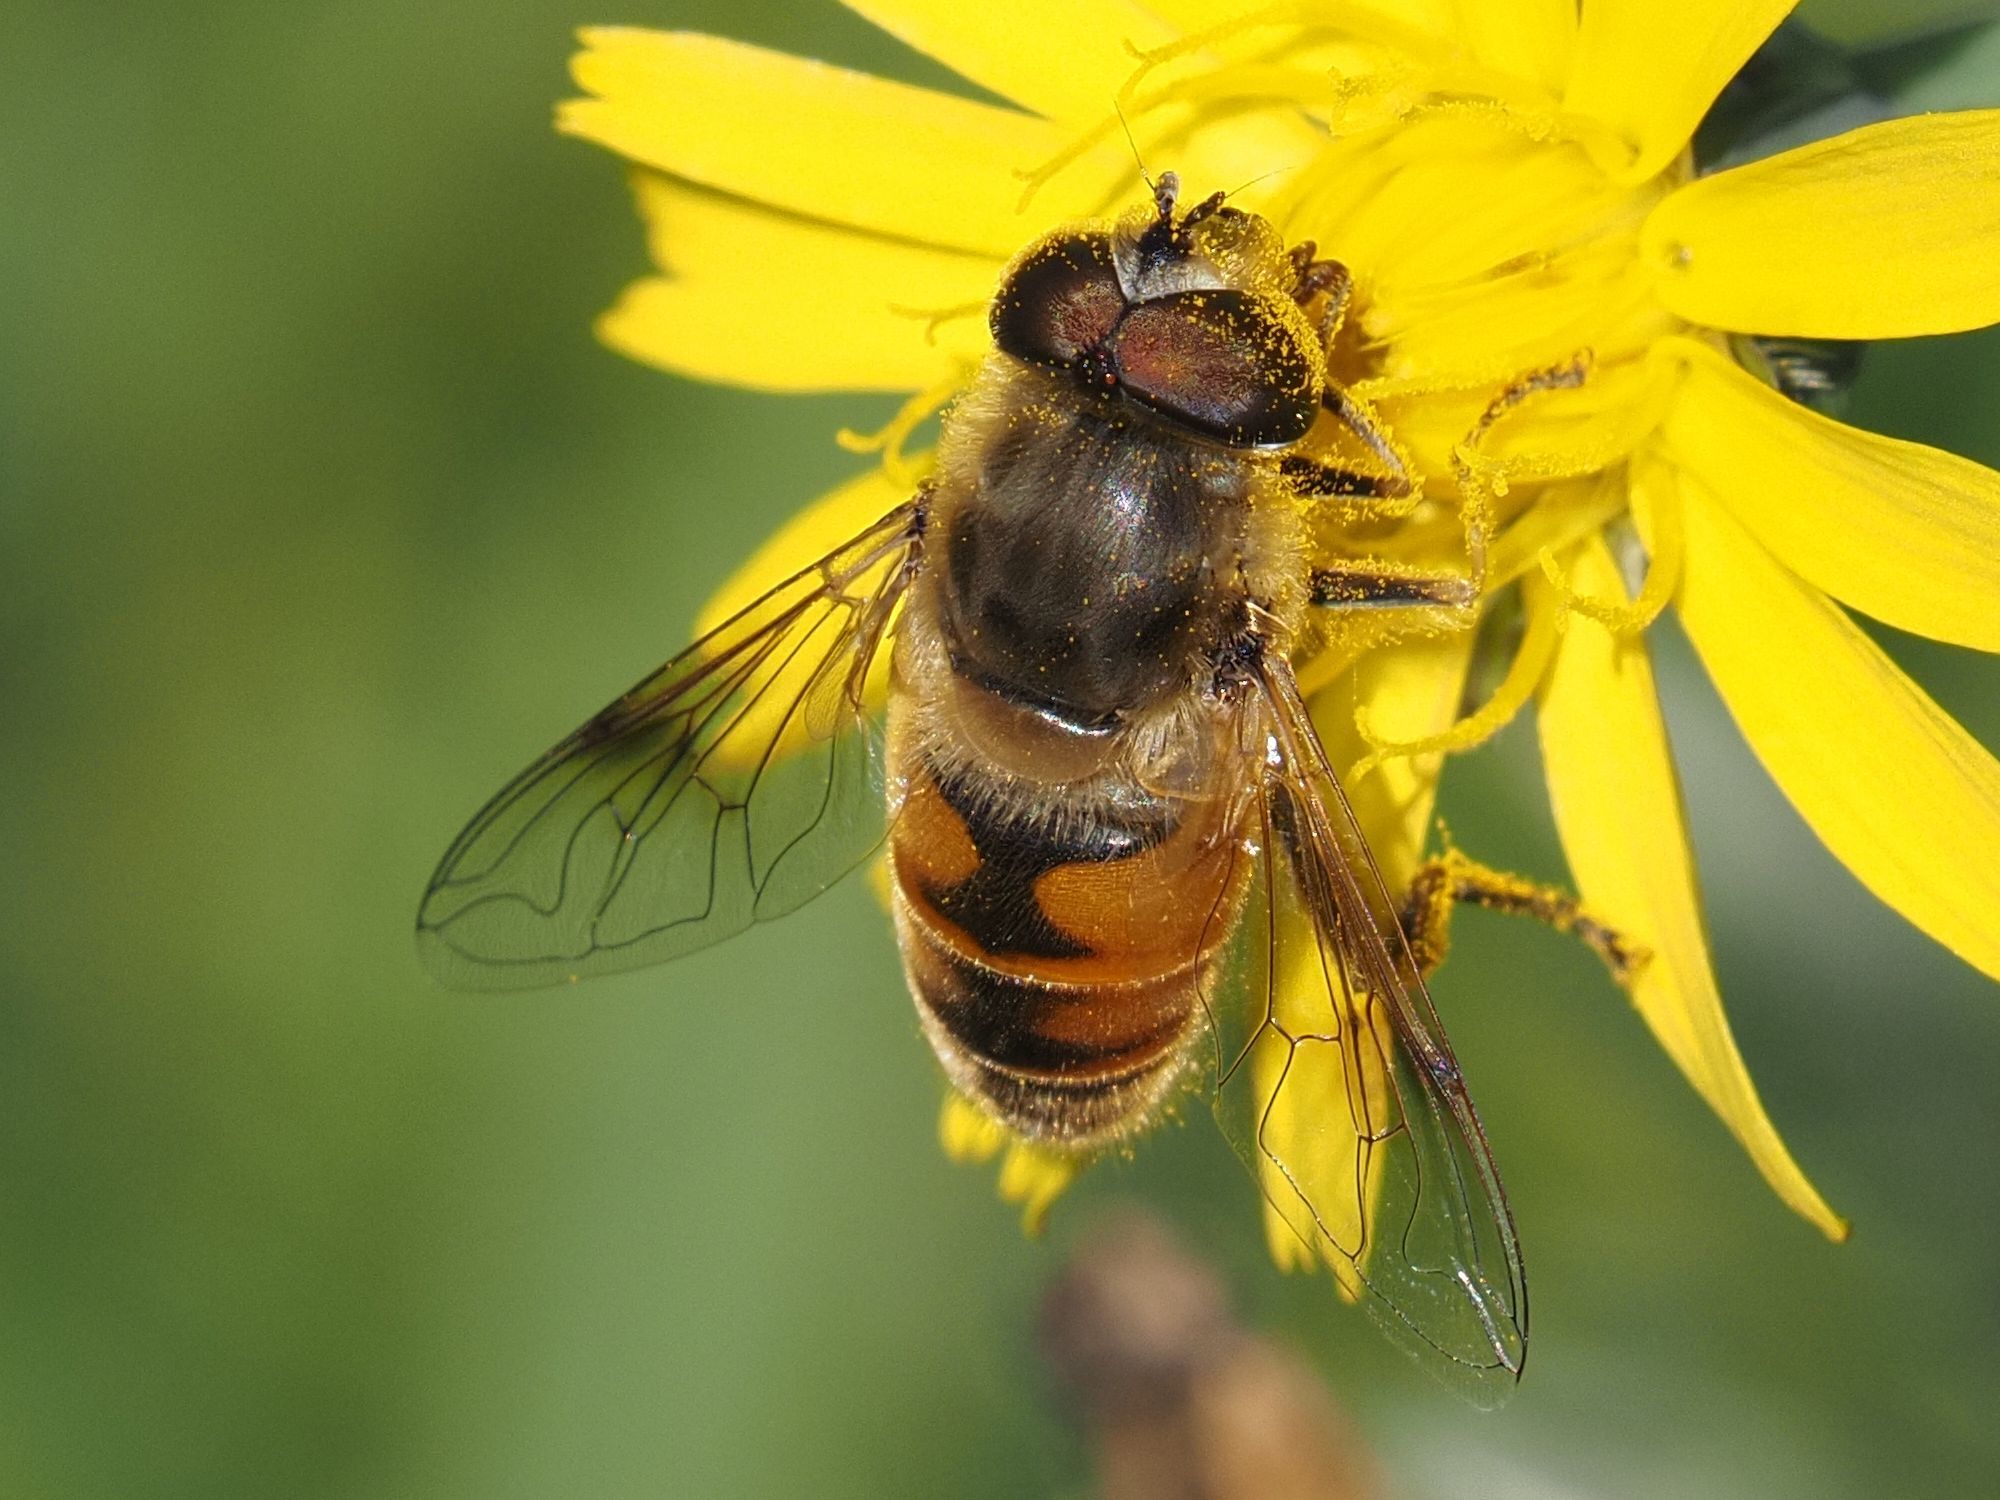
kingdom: Animalia
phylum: Arthropoda
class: Insecta
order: Diptera
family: Syrphidae
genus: Eristalis
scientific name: Eristalis tenax
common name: Drone fly
